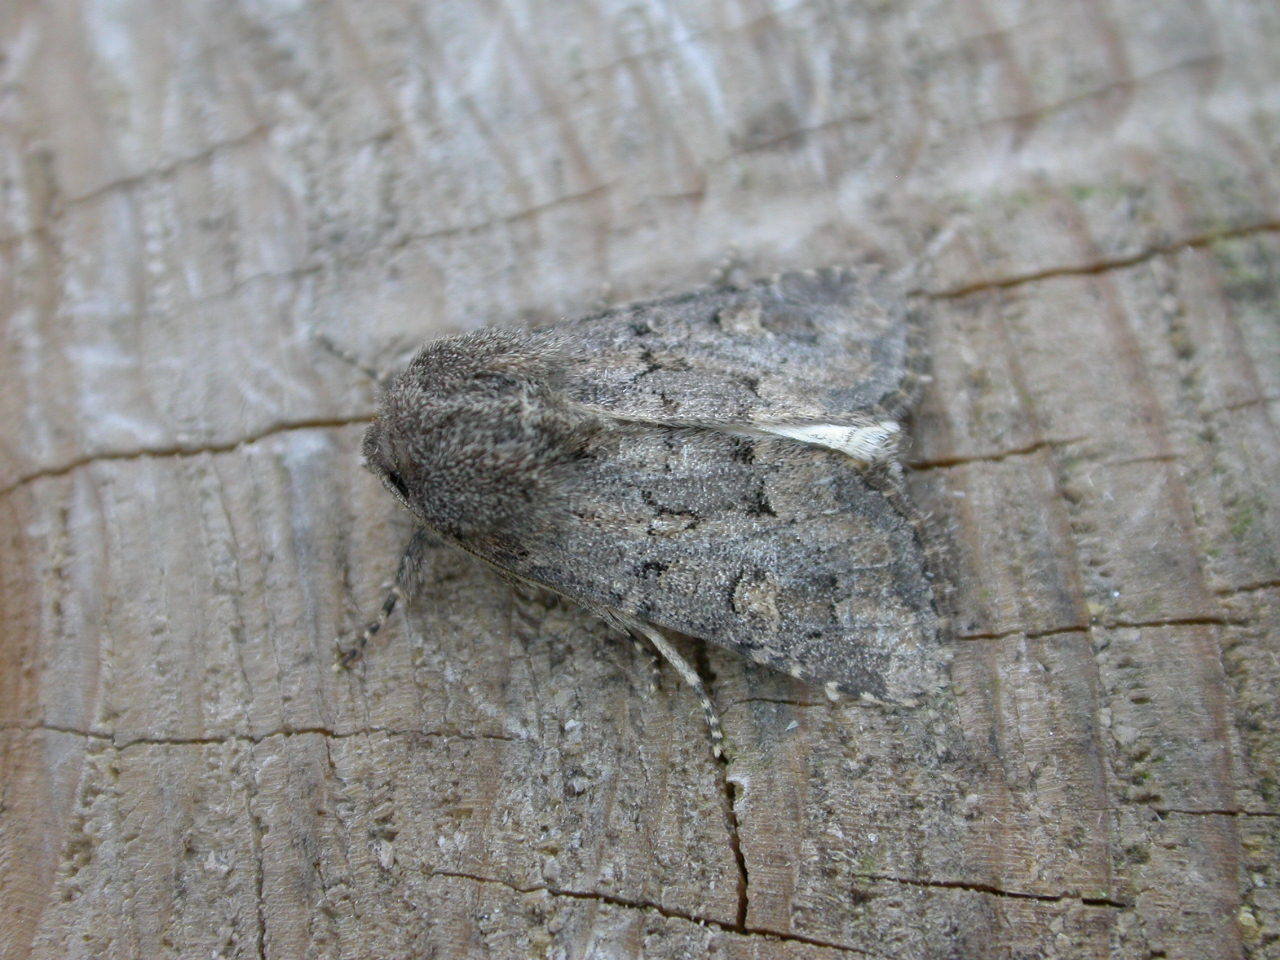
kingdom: Animalia
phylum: Arthropoda
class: Insecta
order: Lepidoptera
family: Noctuidae
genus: Luperina
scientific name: Luperina testacea
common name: Flounced rustic
